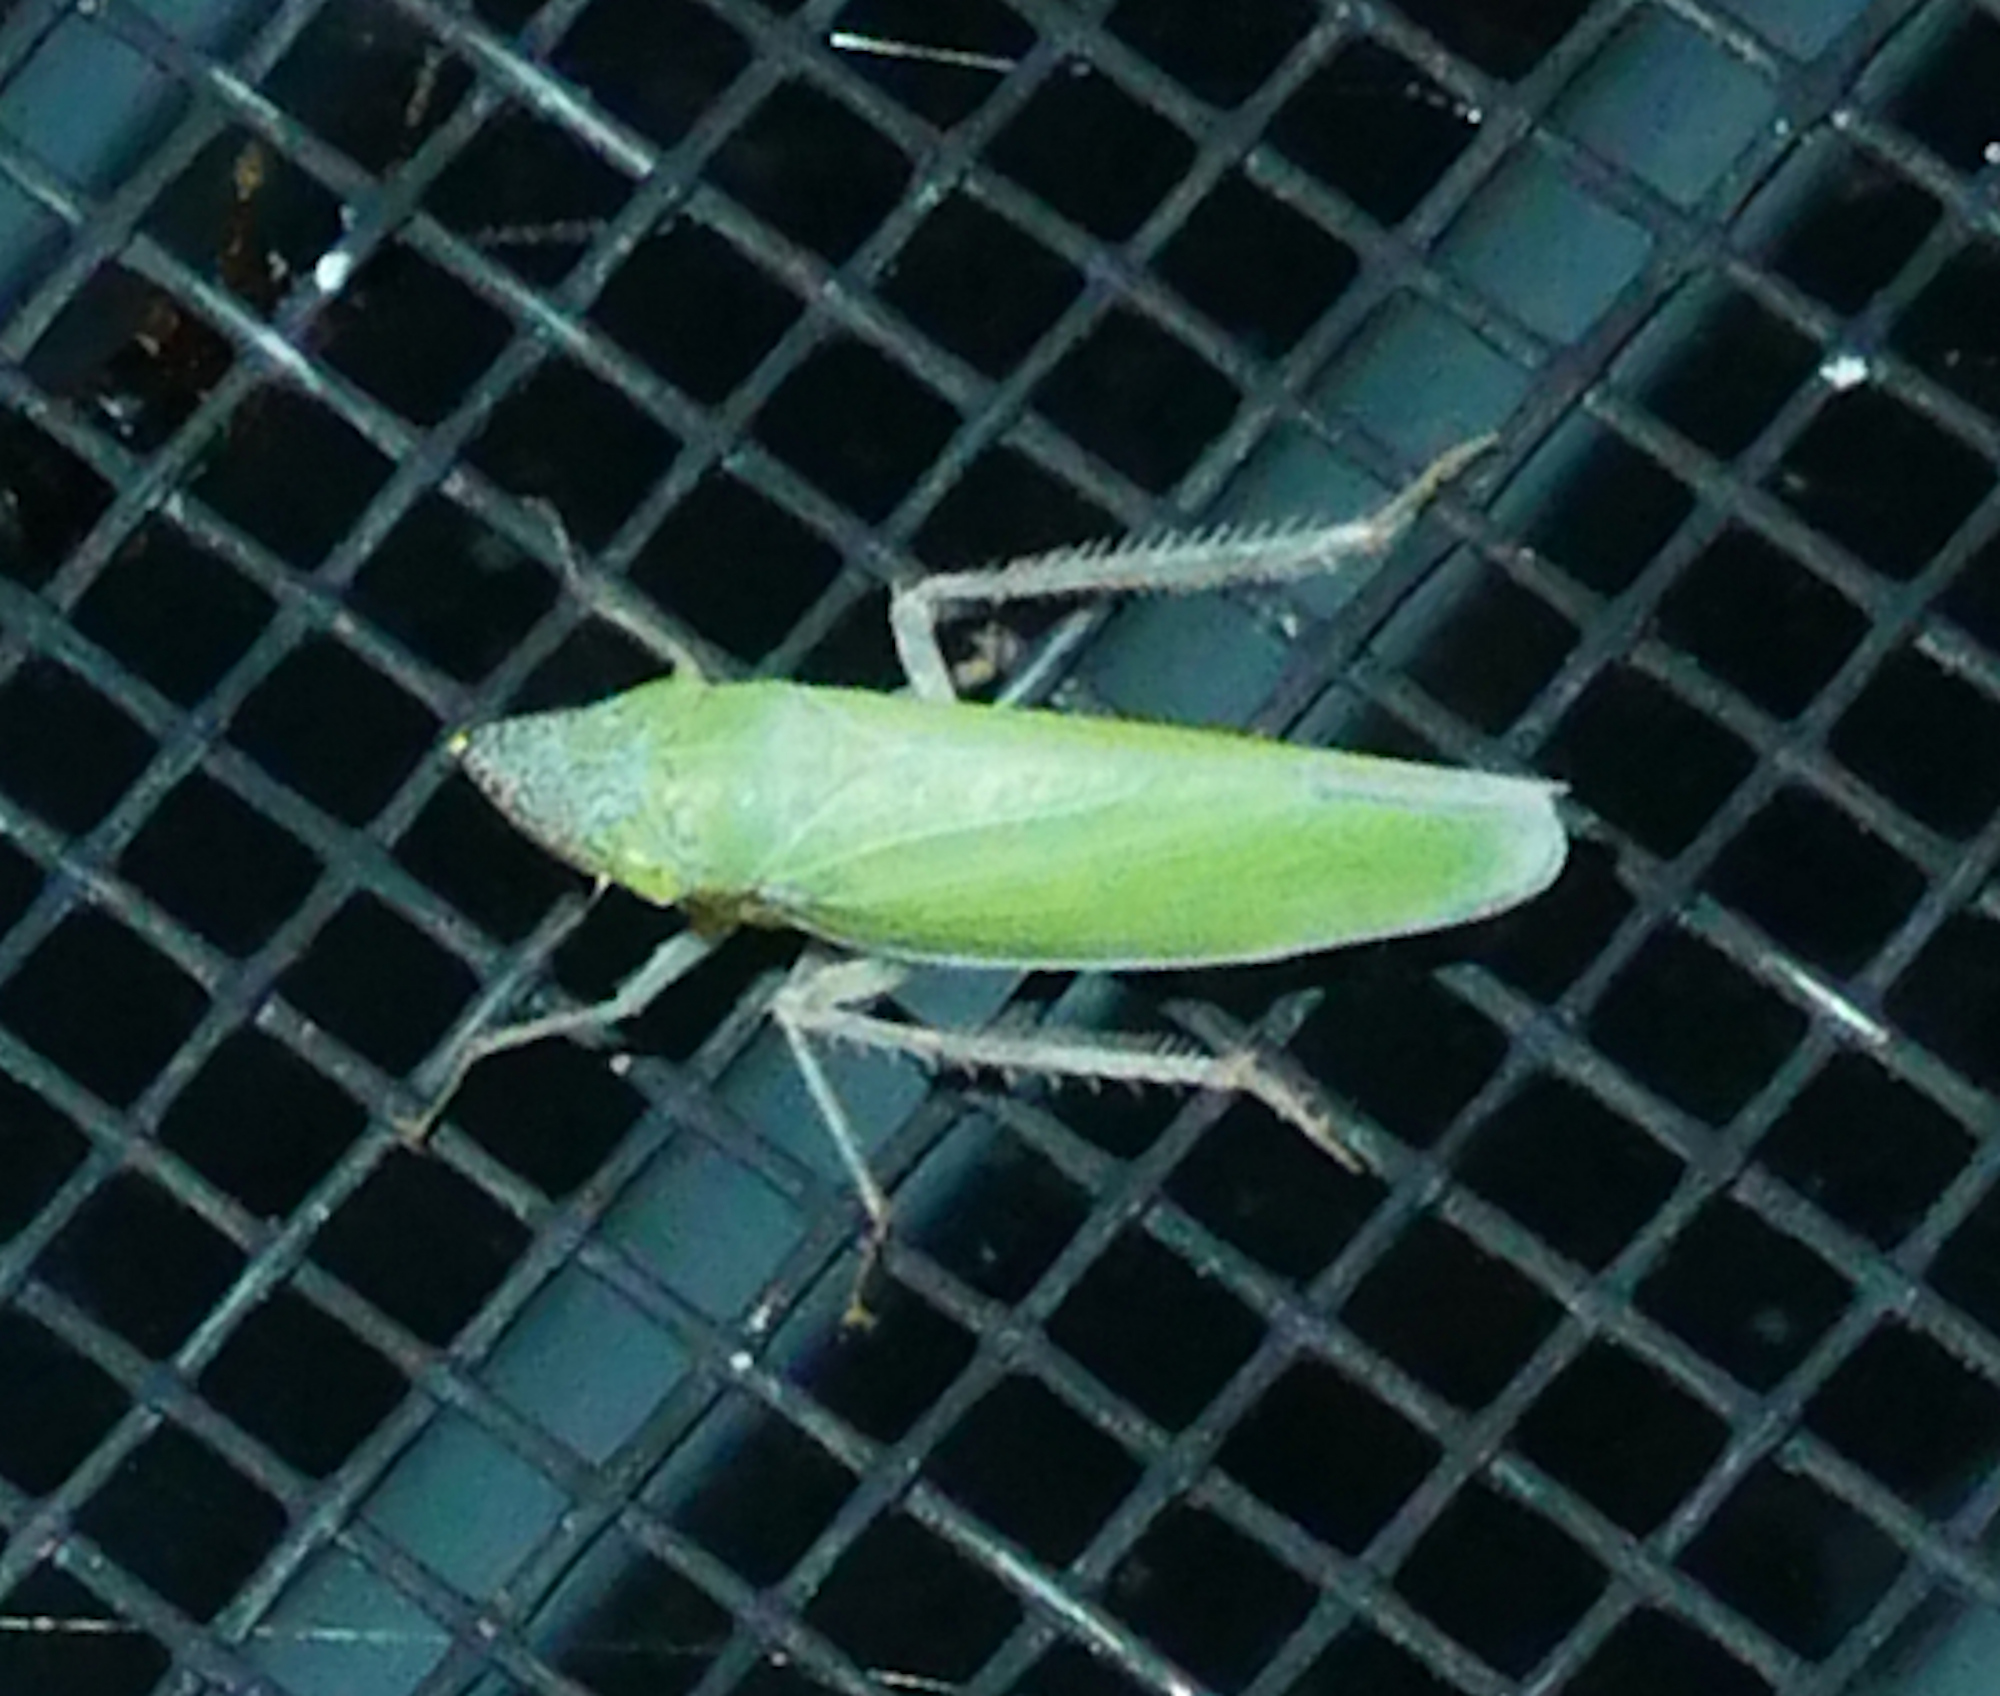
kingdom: Animalia
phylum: Arthropoda
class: Insecta
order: Hemiptera
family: Cicadellidae
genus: Draeculacephala
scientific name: Draeculacephala floridana
